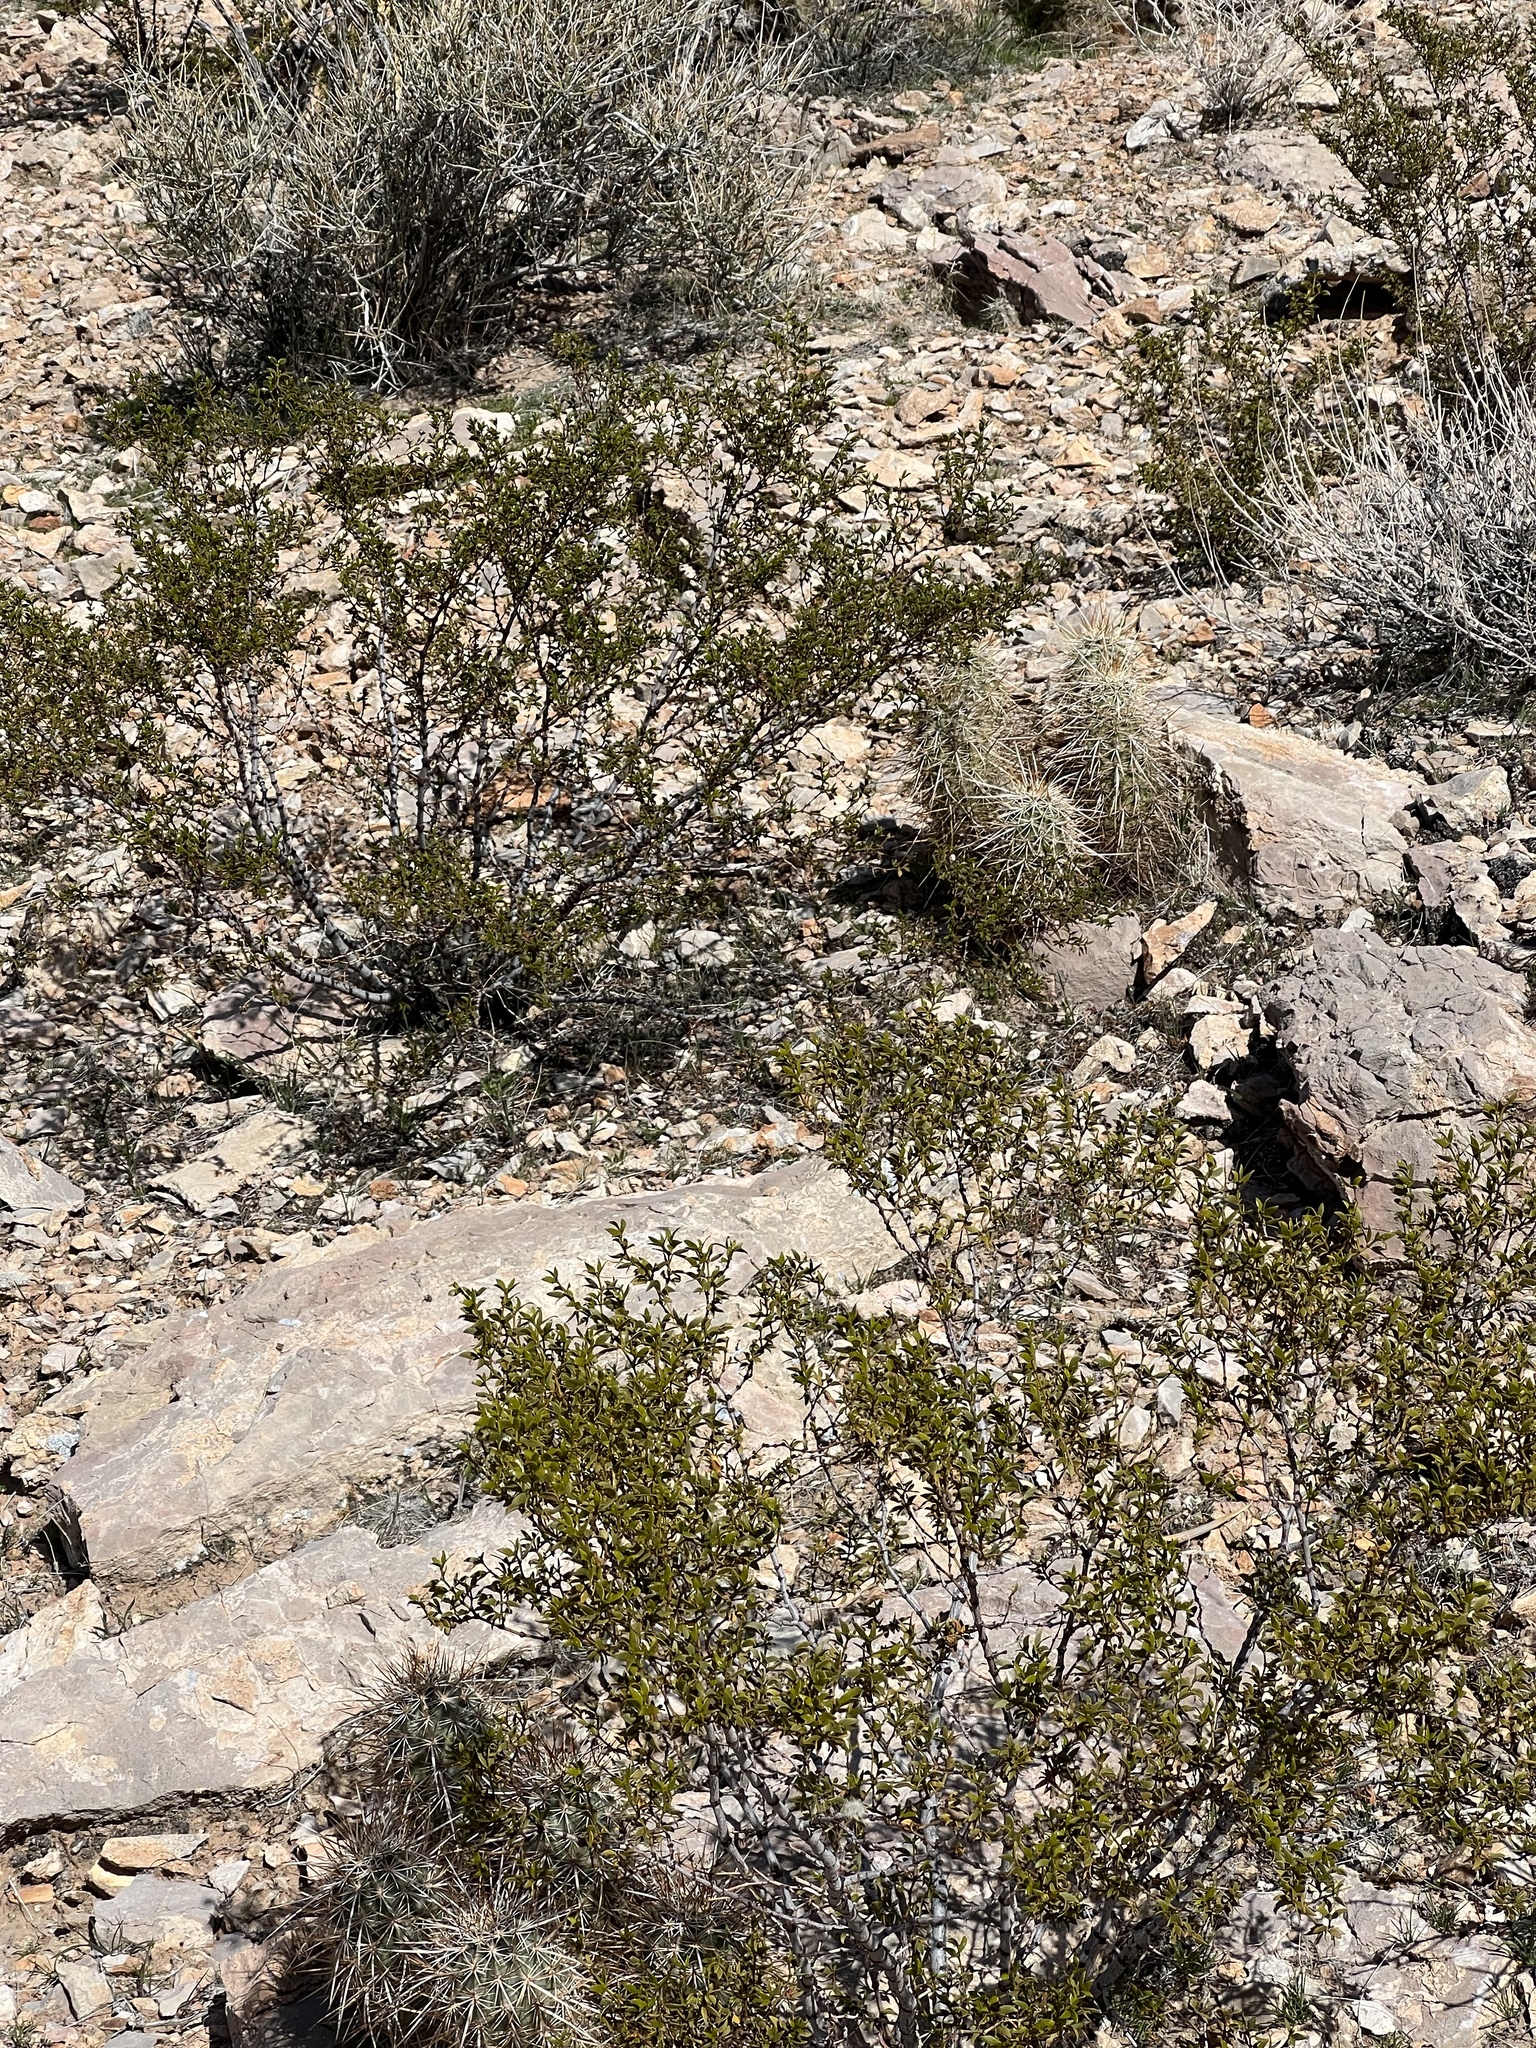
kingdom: Plantae
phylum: Tracheophyta
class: Magnoliopsida
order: Zygophyllales
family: Zygophyllaceae
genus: Larrea
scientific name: Larrea tridentata
